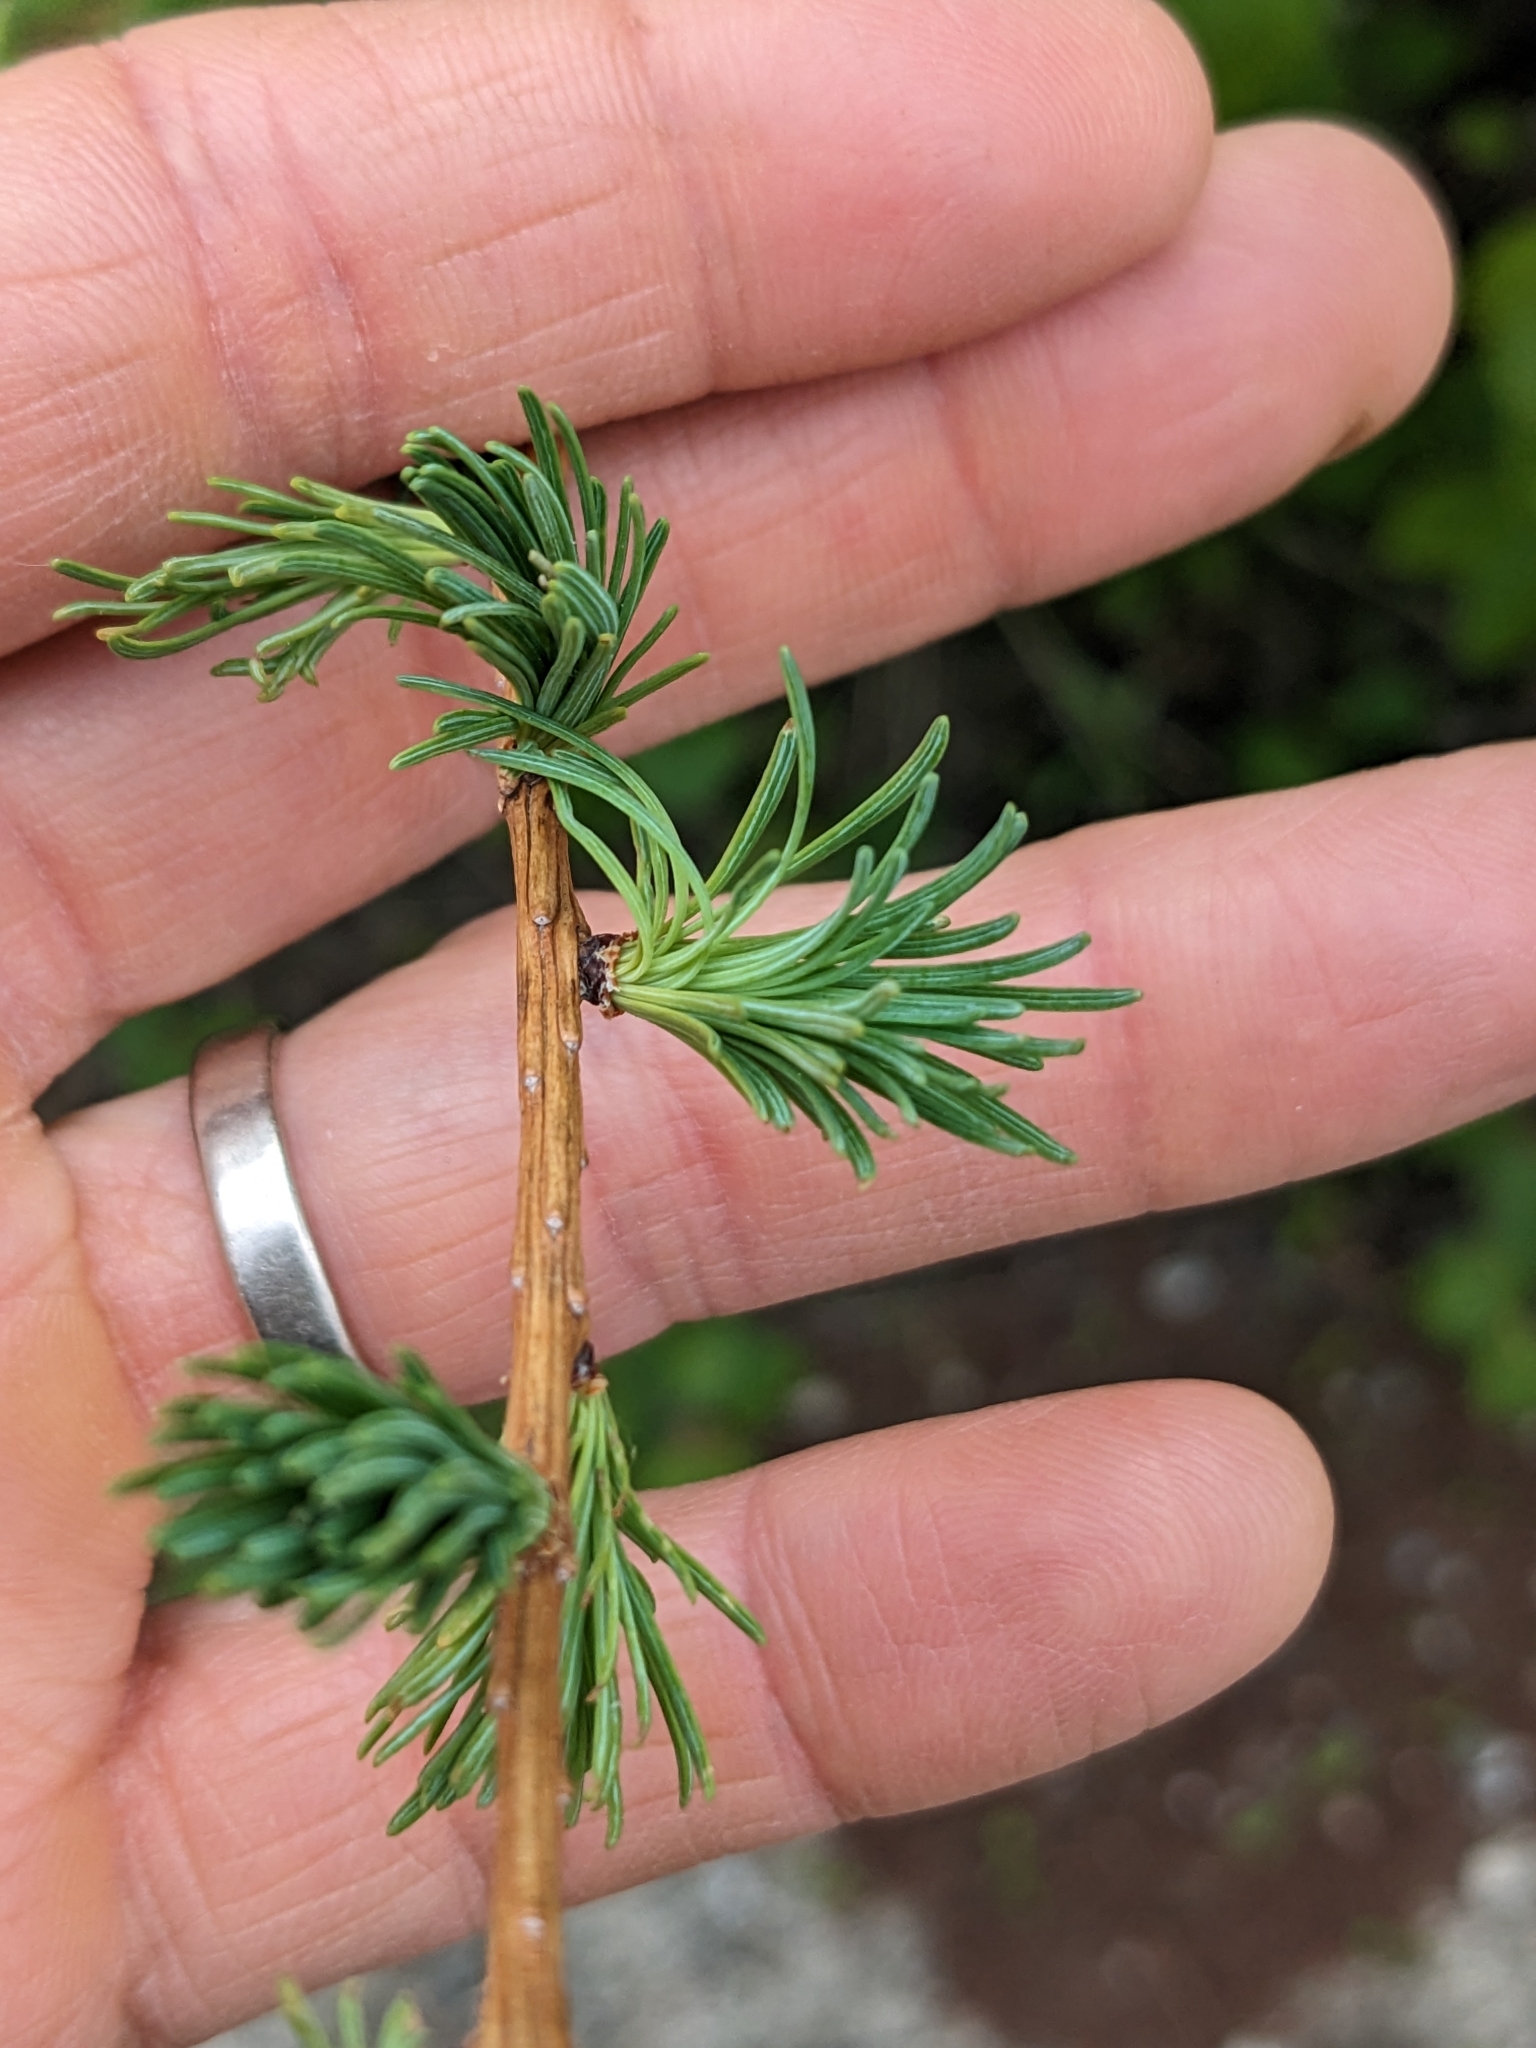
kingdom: Plantae
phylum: Tracheophyta
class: Pinopsida
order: Pinales
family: Pinaceae
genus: Larix
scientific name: Larix laricina
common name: American larch
